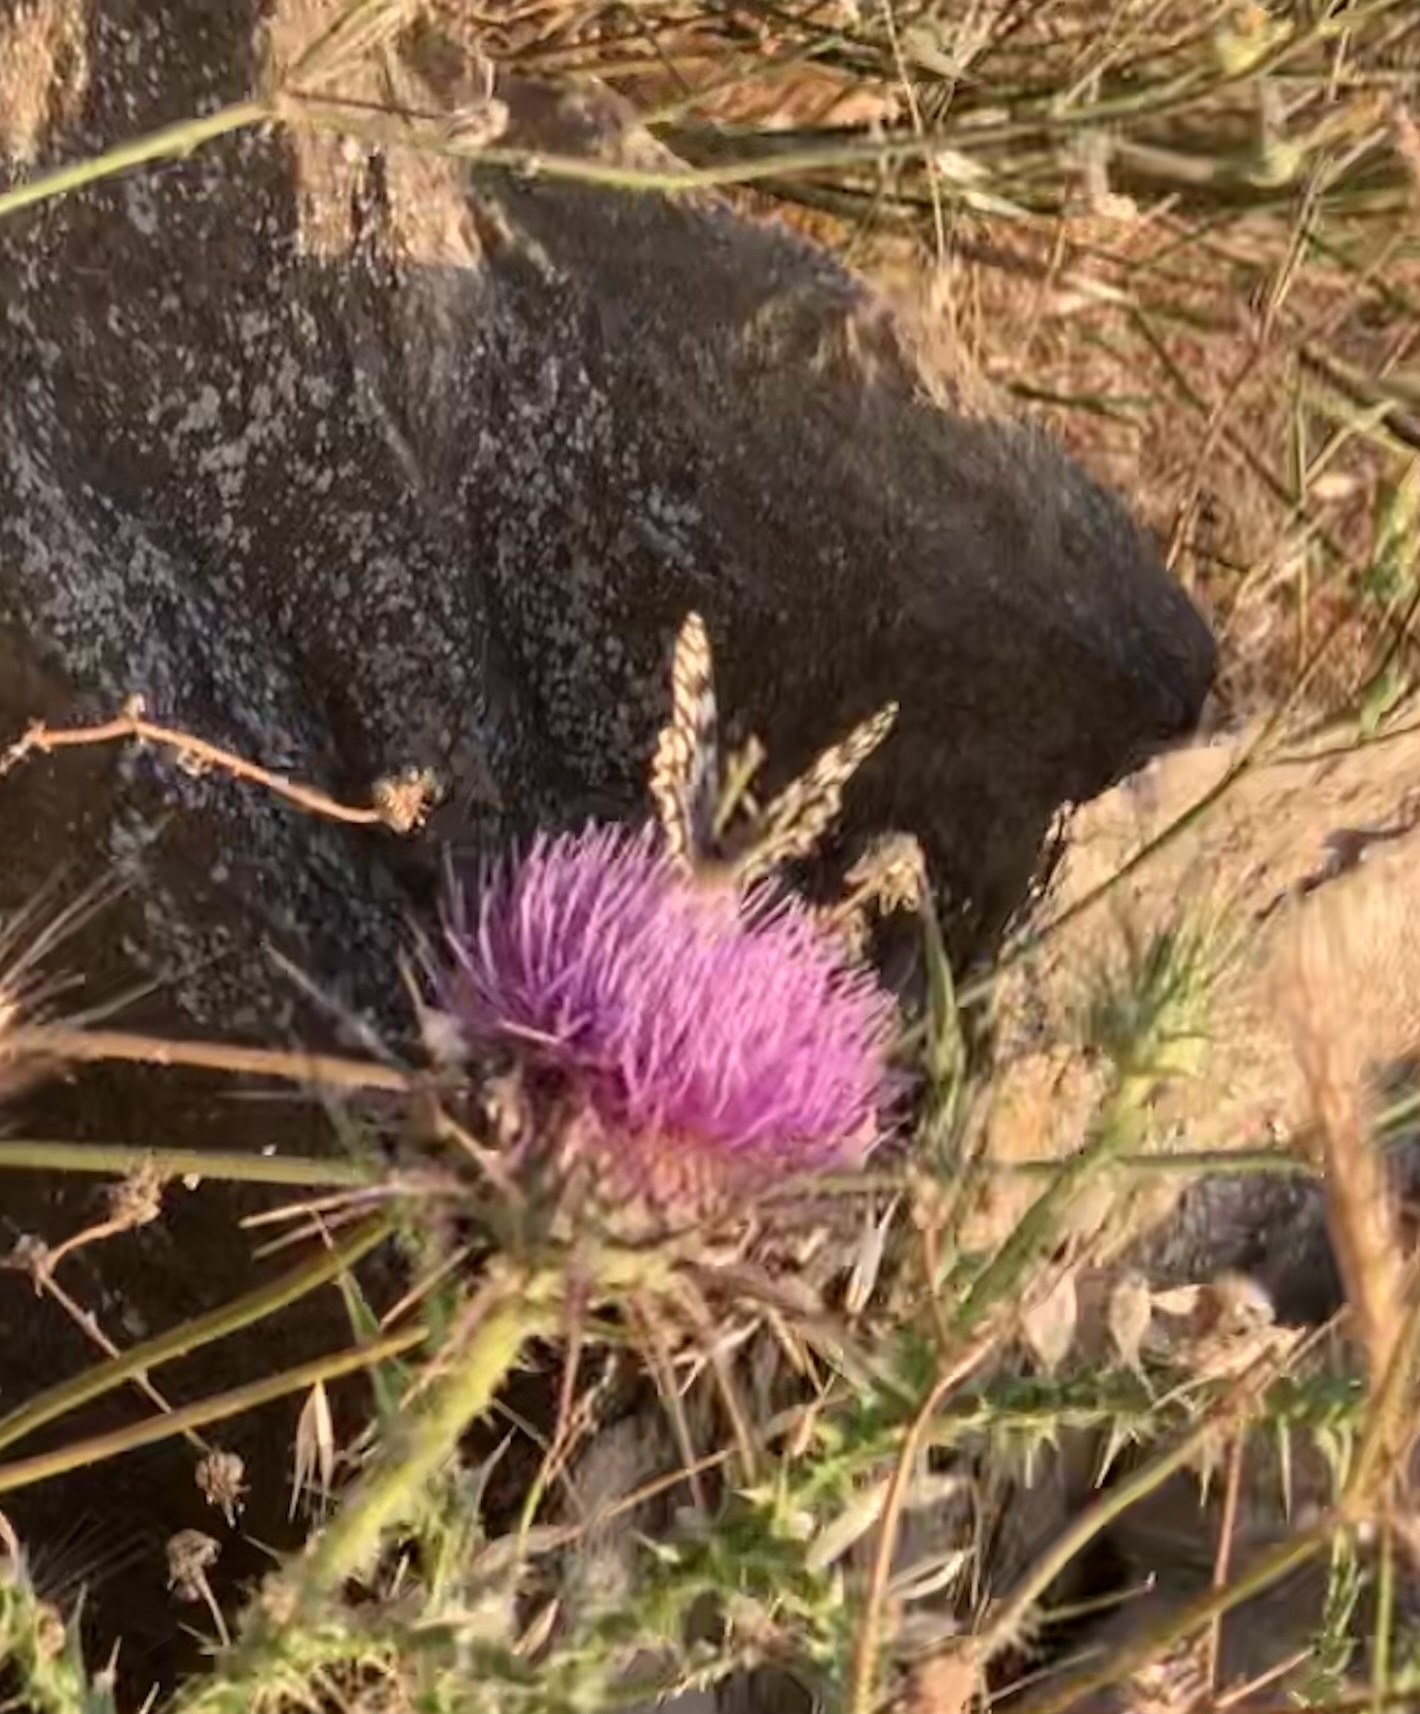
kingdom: Animalia
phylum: Arthropoda
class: Insecta
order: Lepidoptera
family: Nymphalidae
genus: Melanargia
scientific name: Melanargia larissa
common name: Balkan marbled white
